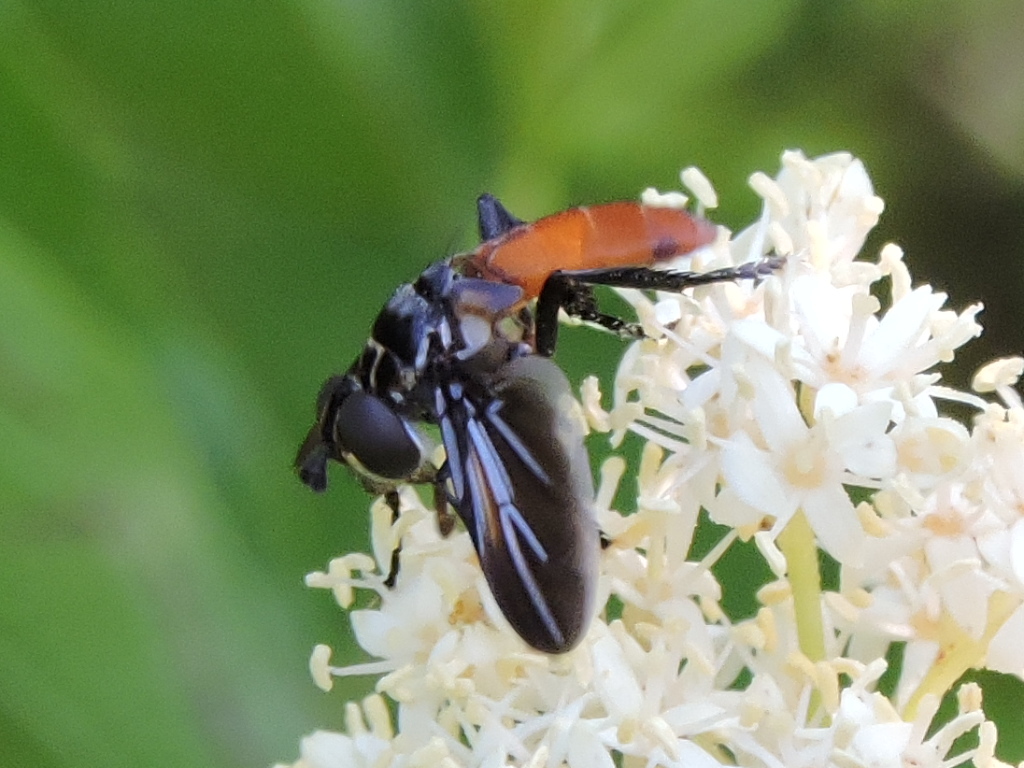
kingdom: Animalia
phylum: Arthropoda
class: Insecta
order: Diptera
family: Tachinidae
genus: Trichopoda
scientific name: Trichopoda pennipes
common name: Tachinid fly
